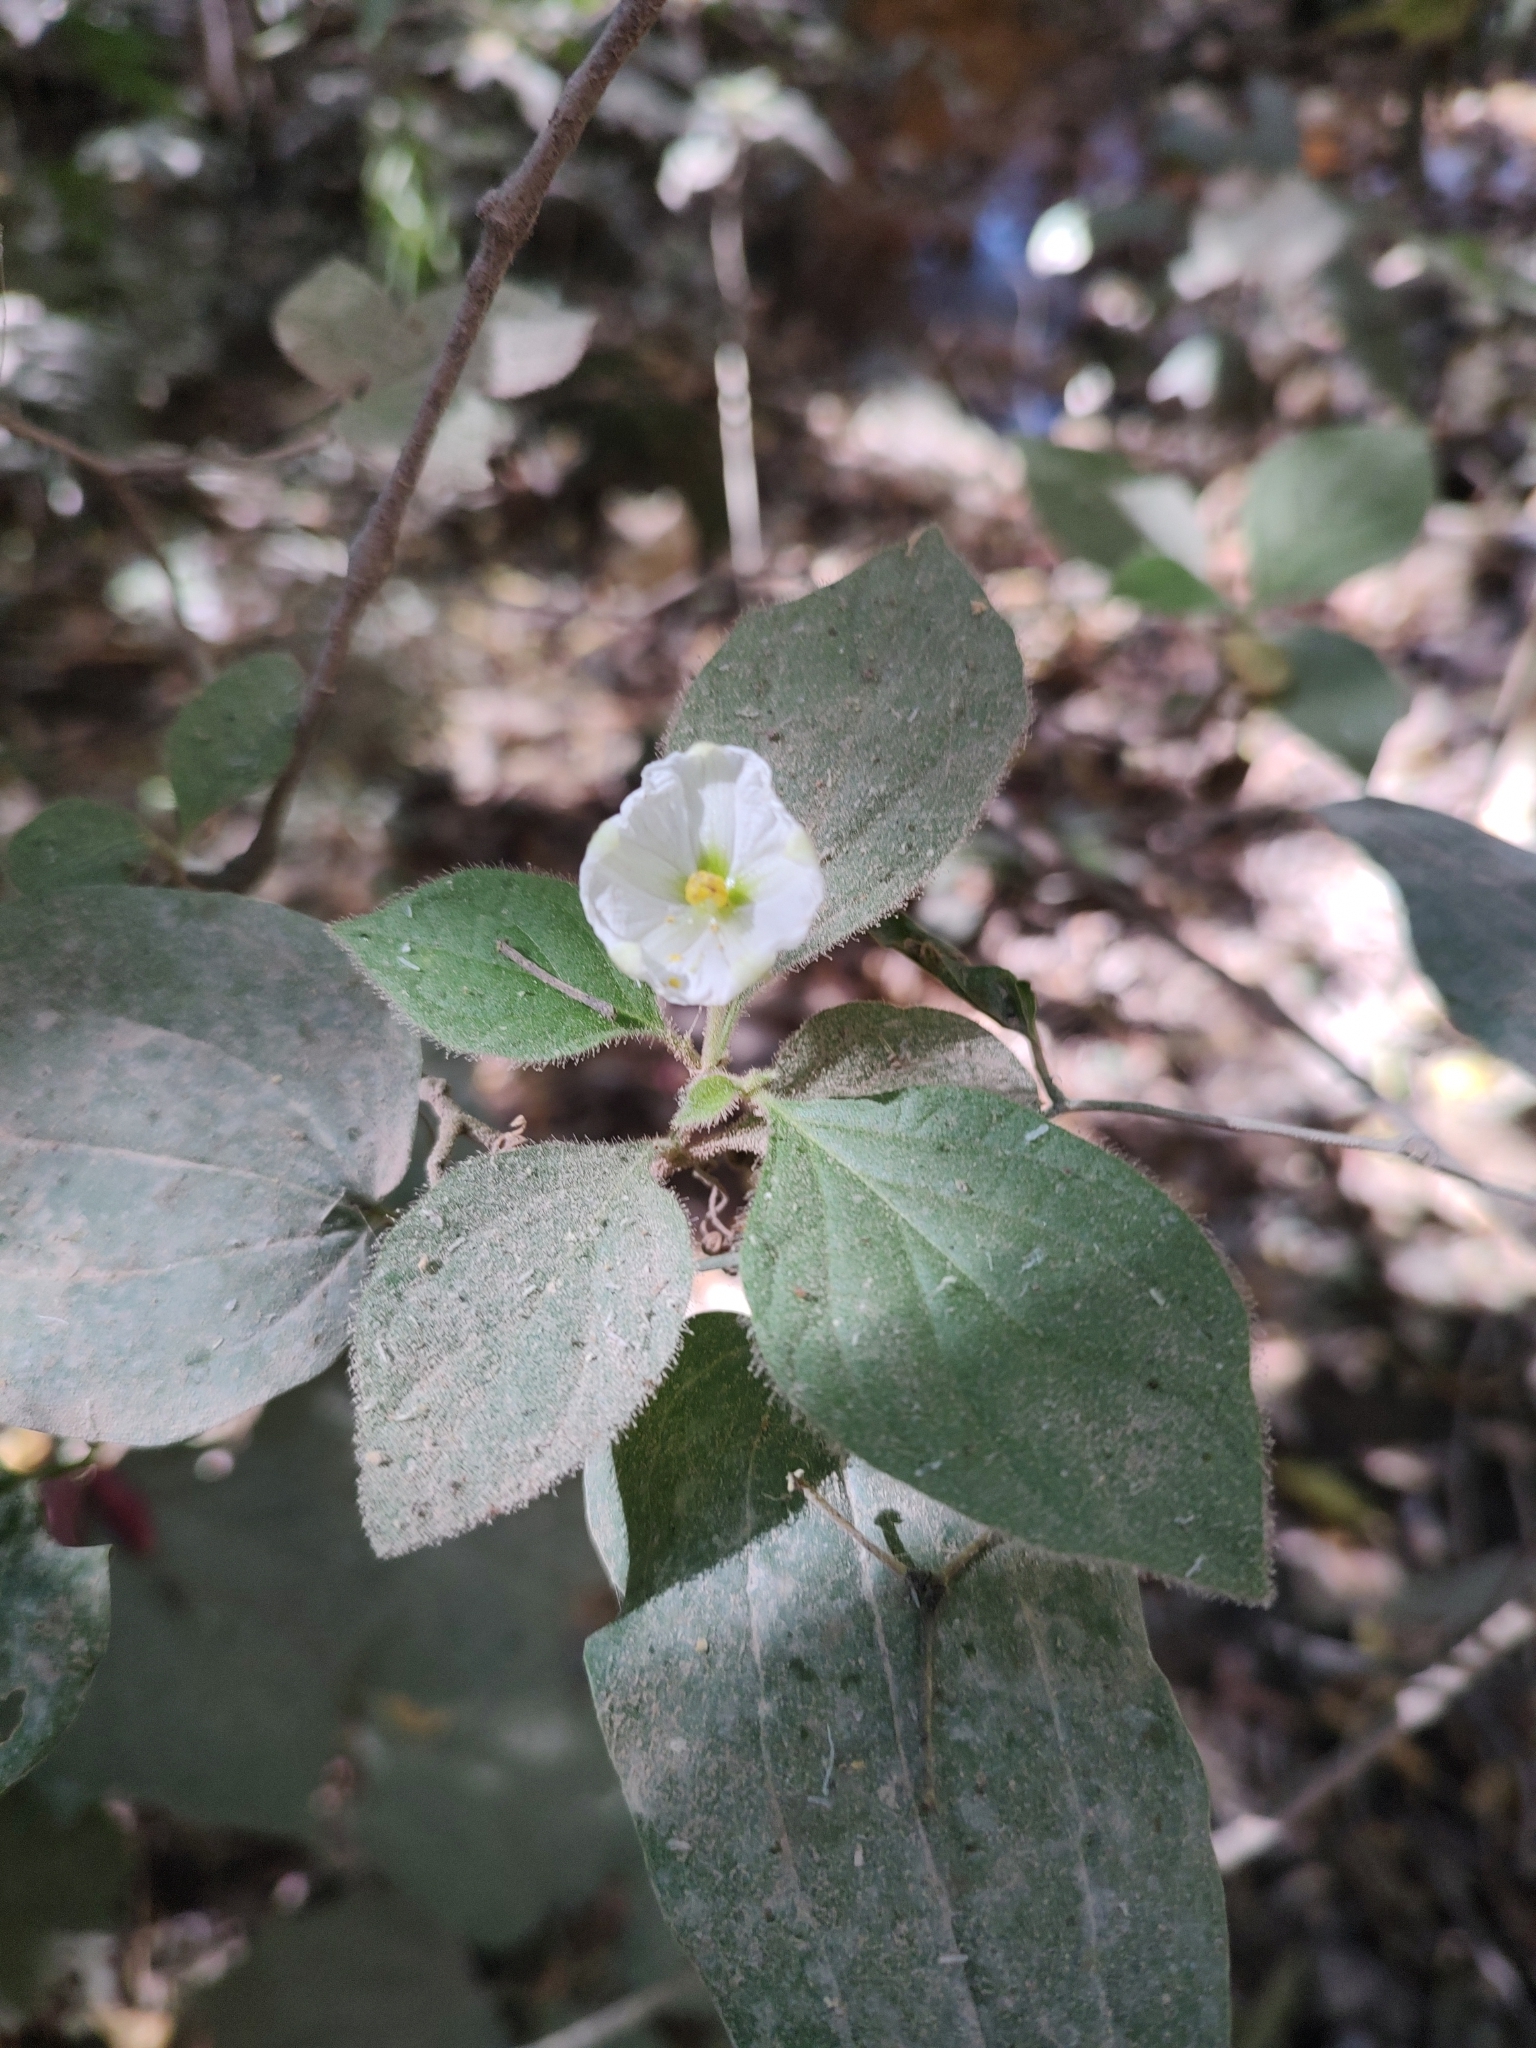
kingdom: Plantae
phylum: Tracheophyta
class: Magnoliopsida
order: Solanales
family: Solanaceae
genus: Lycianthes
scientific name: Lycianthes surotatensis
